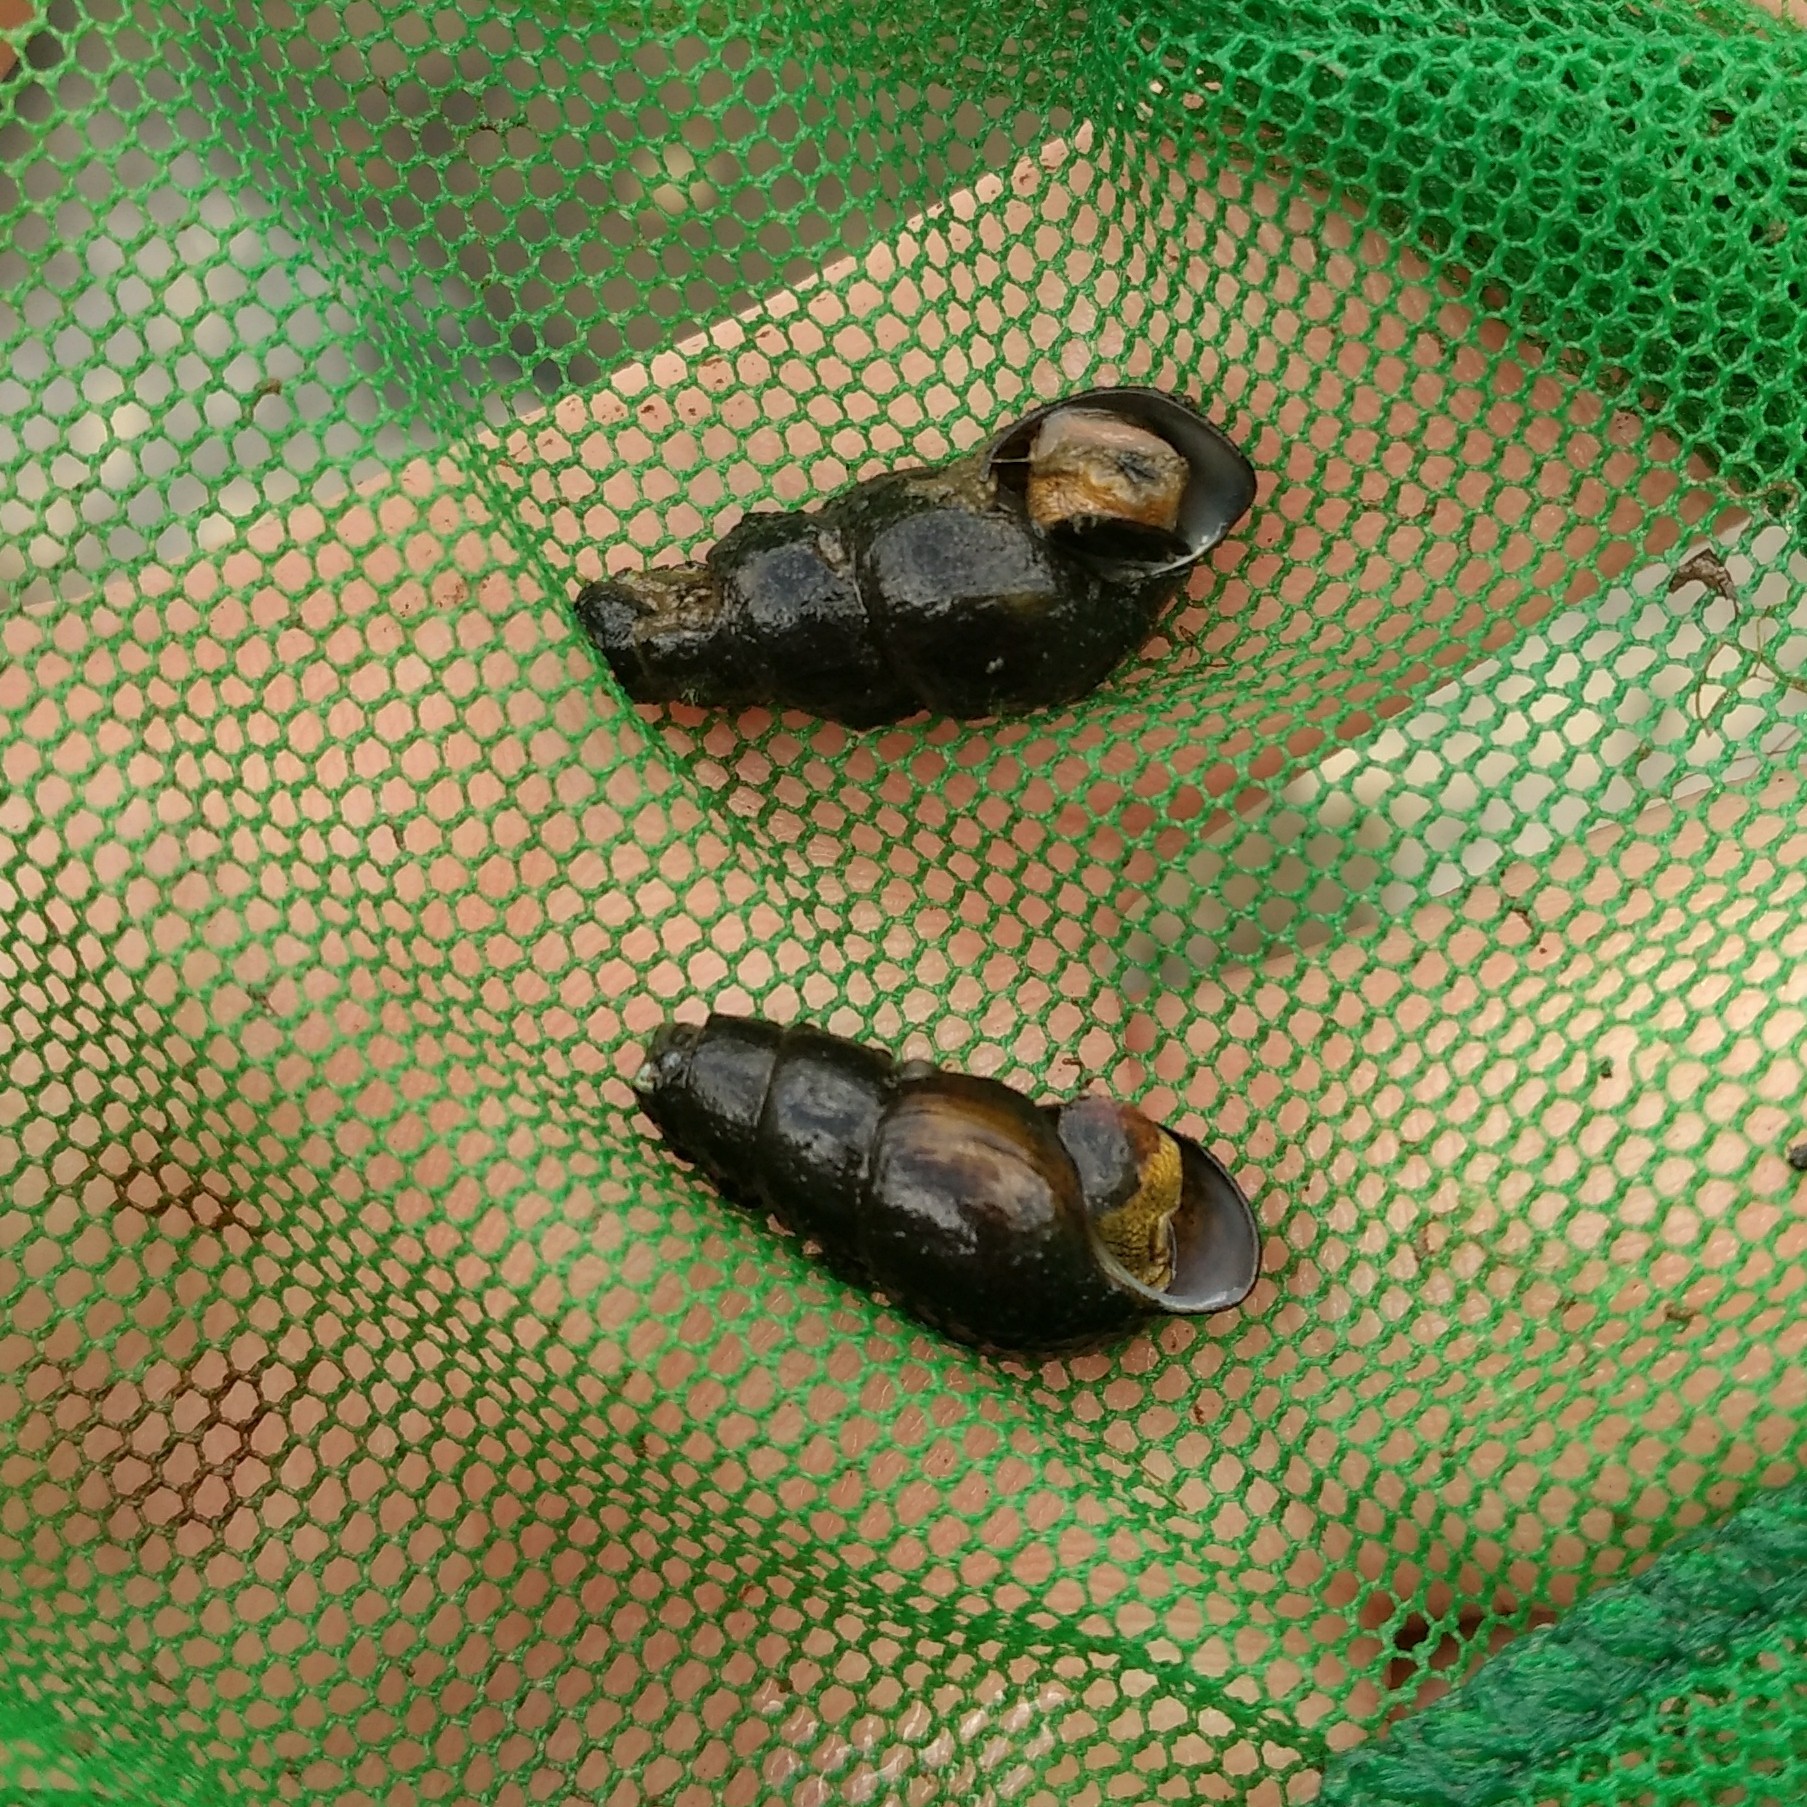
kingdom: Animalia
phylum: Mollusca
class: Gastropoda
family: Pleuroceridae
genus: Elimia
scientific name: Elimia virginica
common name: Piedmont elimia
